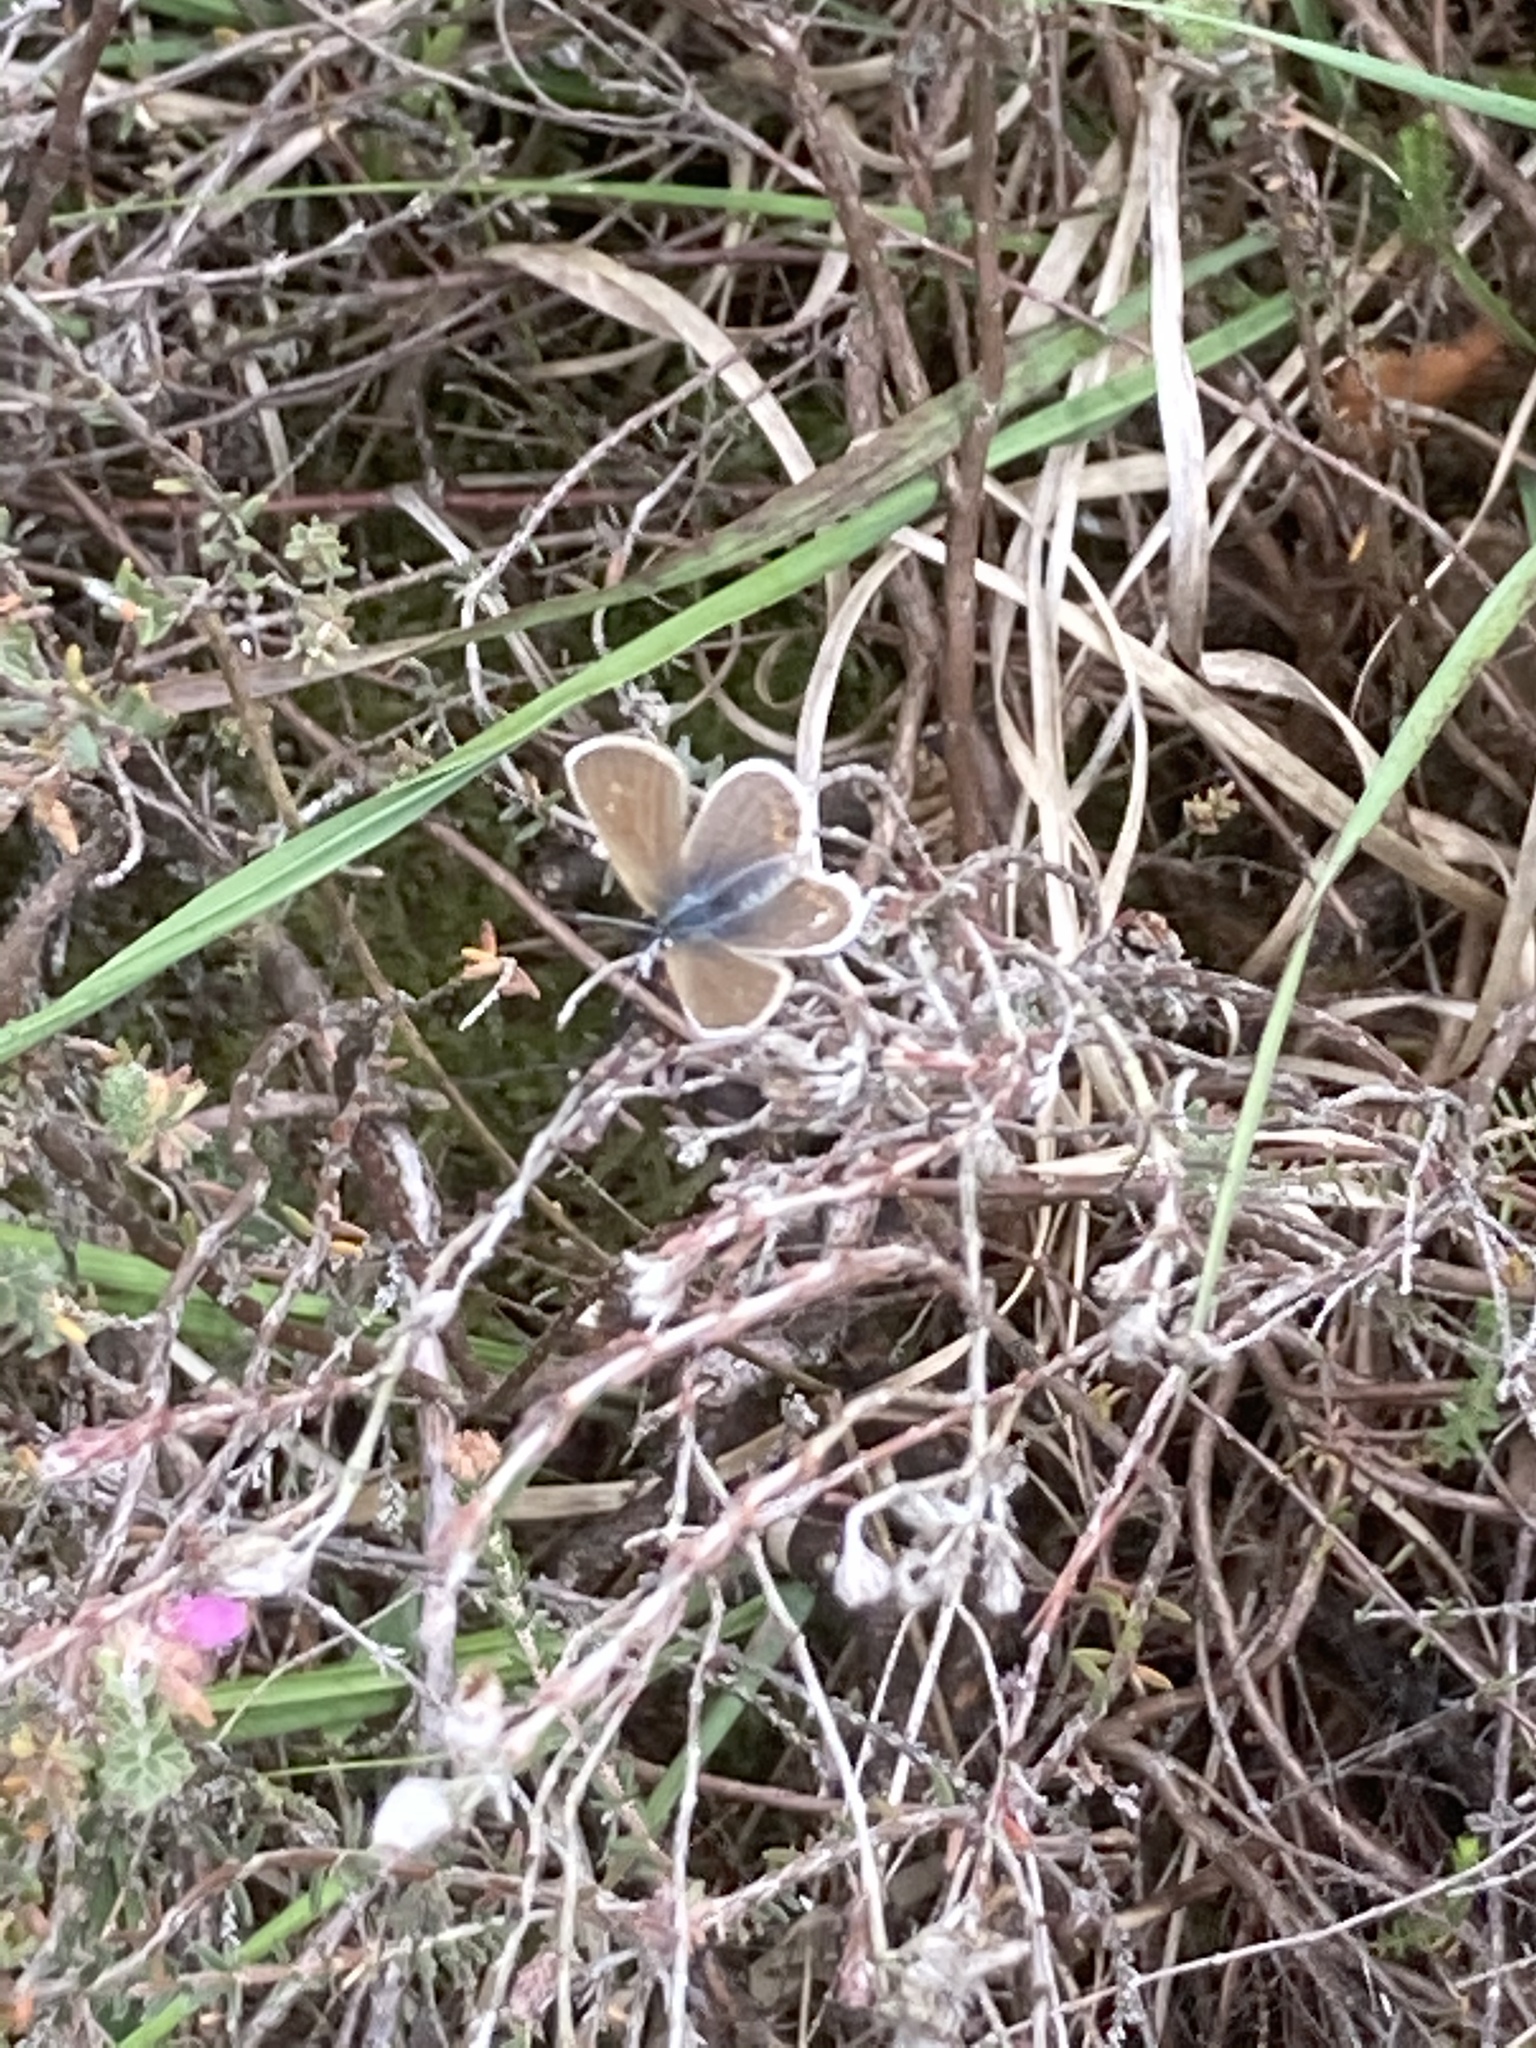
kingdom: Animalia
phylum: Arthropoda
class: Insecta
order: Lepidoptera
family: Lycaenidae
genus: Plebejus
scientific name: Plebejus argus
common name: Silver-studded blue
